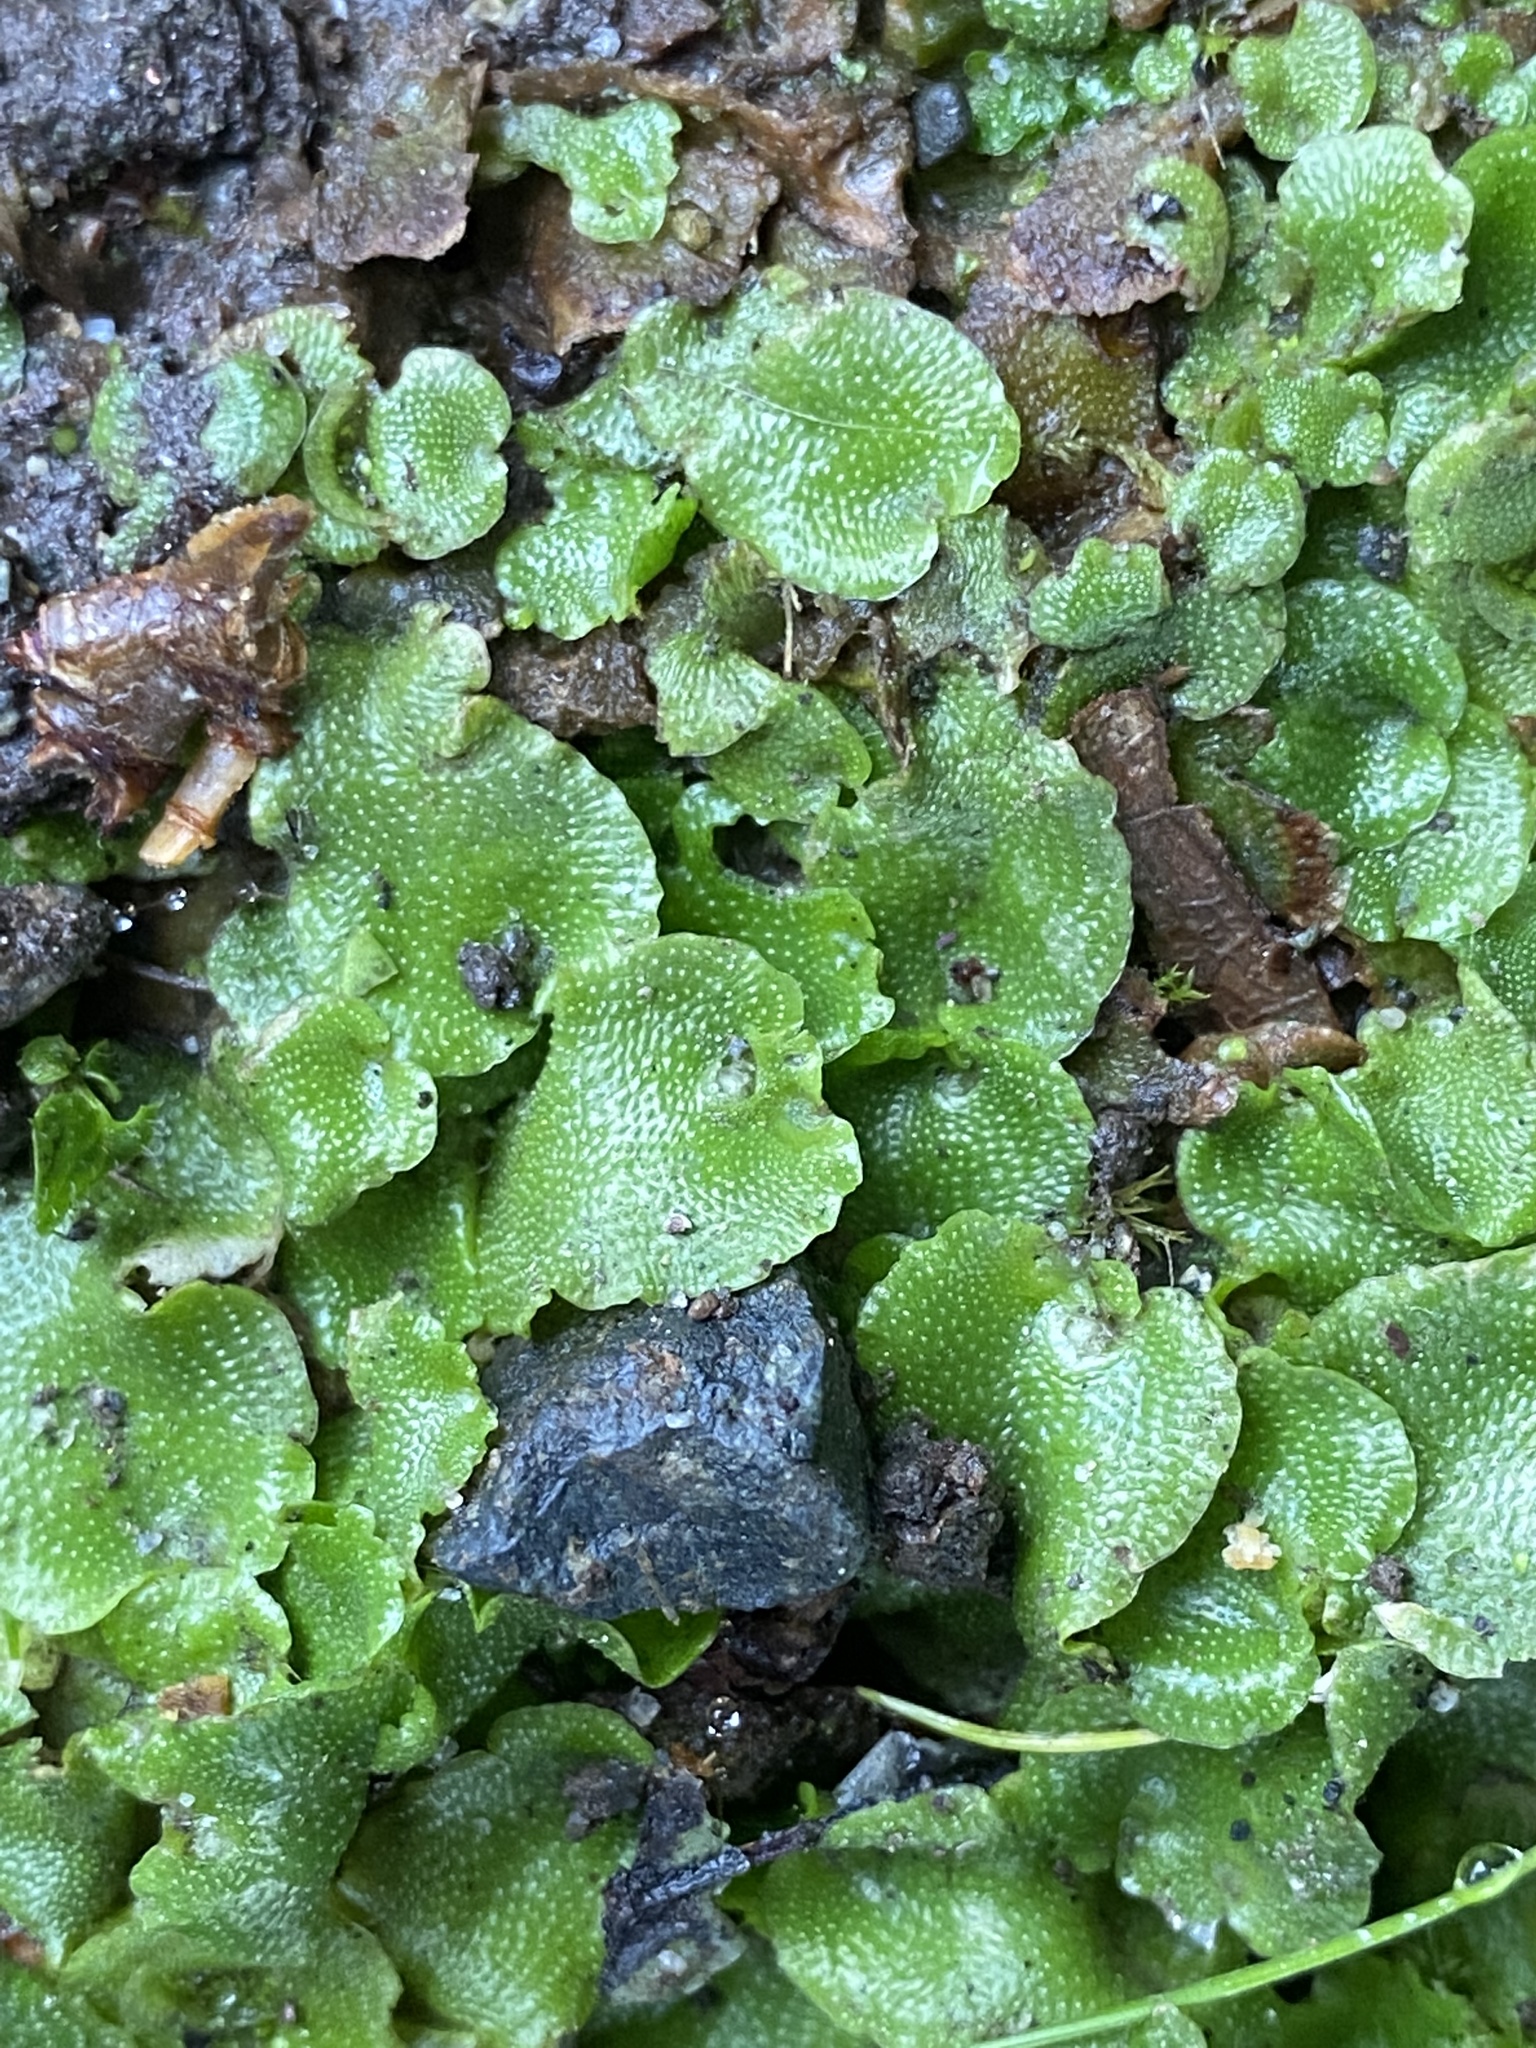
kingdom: Plantae
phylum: Marchantiophyta
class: Marchantiopsida
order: Lunulariales
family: Lunulariaceae
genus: Lunularia
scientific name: Lunularia cruciata
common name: Crescent-cup liverwort
